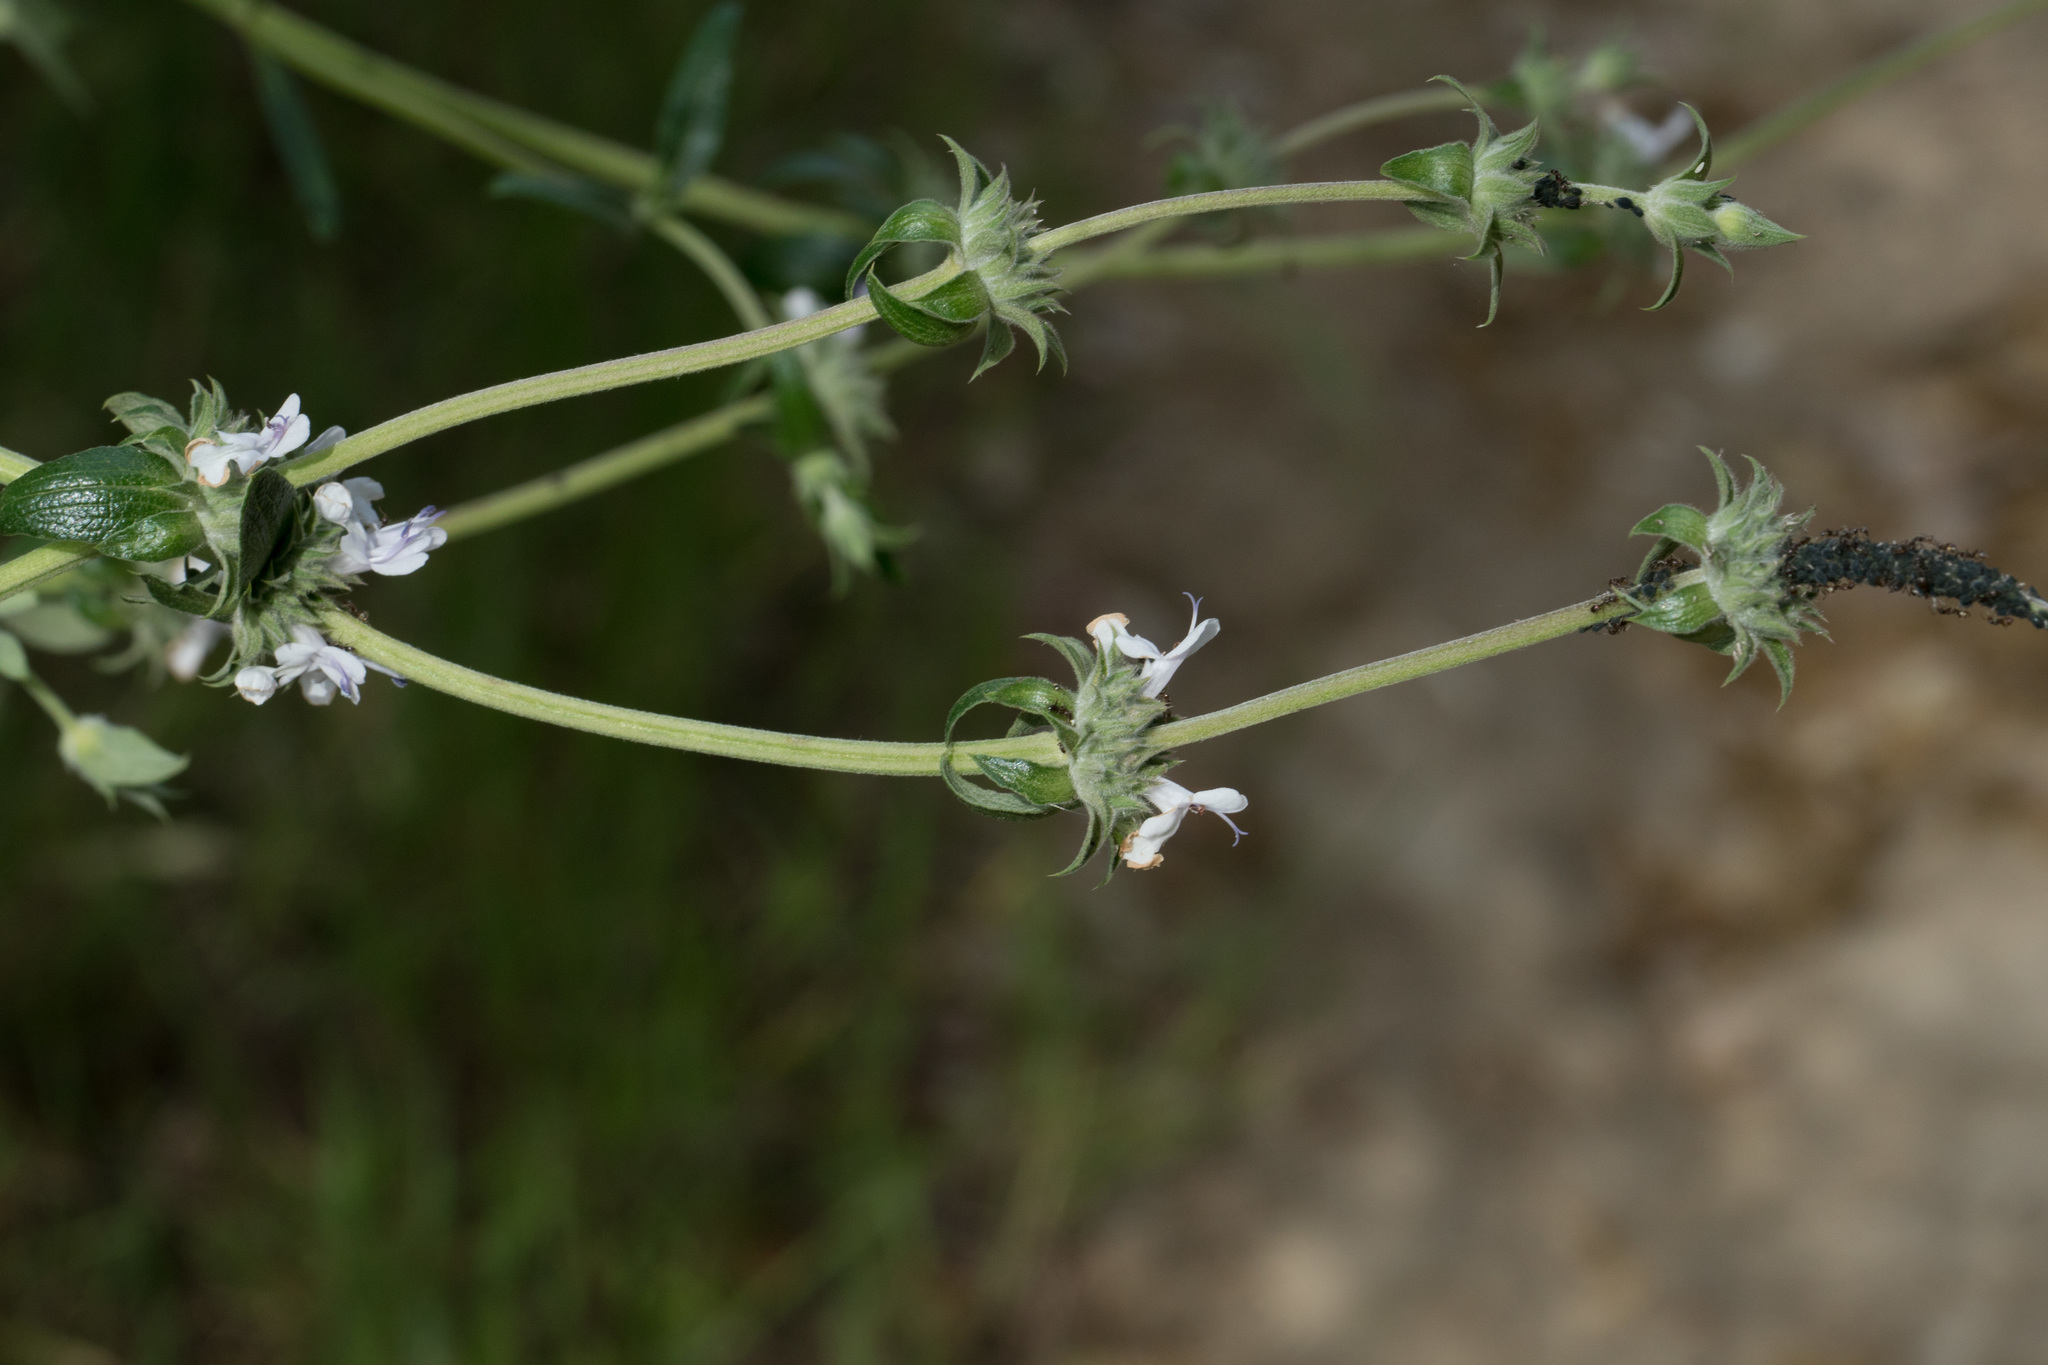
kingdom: Plantae
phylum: Tracheophyta
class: Magnoliopsida
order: Lamiales
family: Lamiaceae
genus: Salvia
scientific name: Salvia mellifera
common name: Black sage
